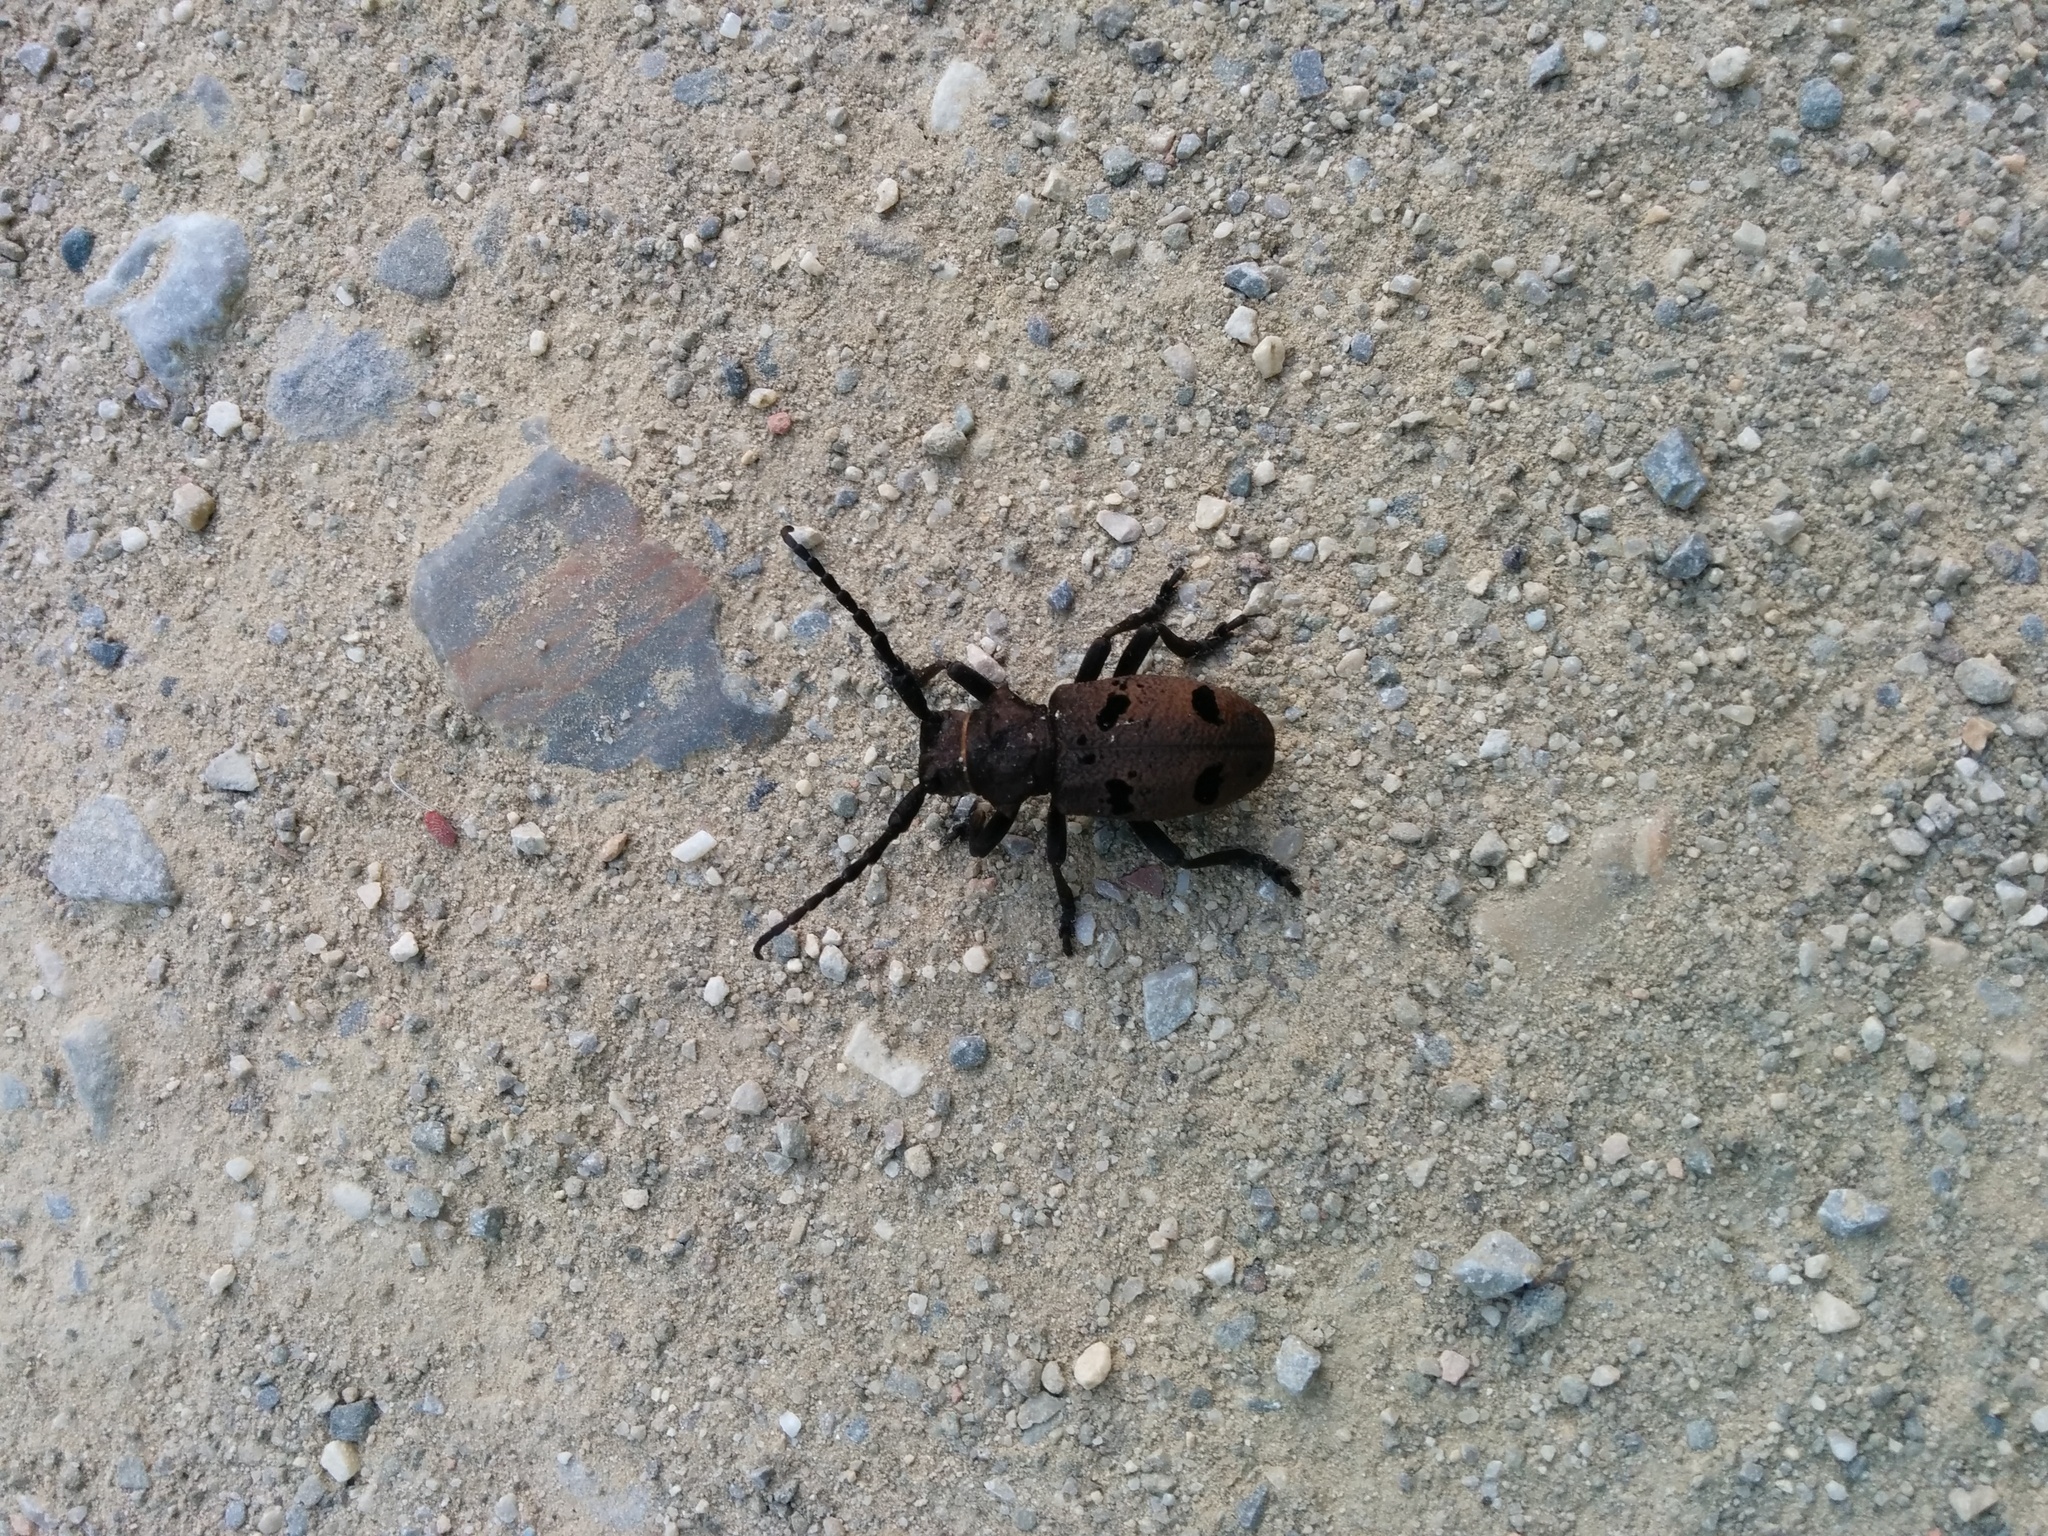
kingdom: Animalia
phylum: Arthropoda
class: Insecta
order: Coleoptera
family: Cerambycidae
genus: Herophila
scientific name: Herophila tristis
